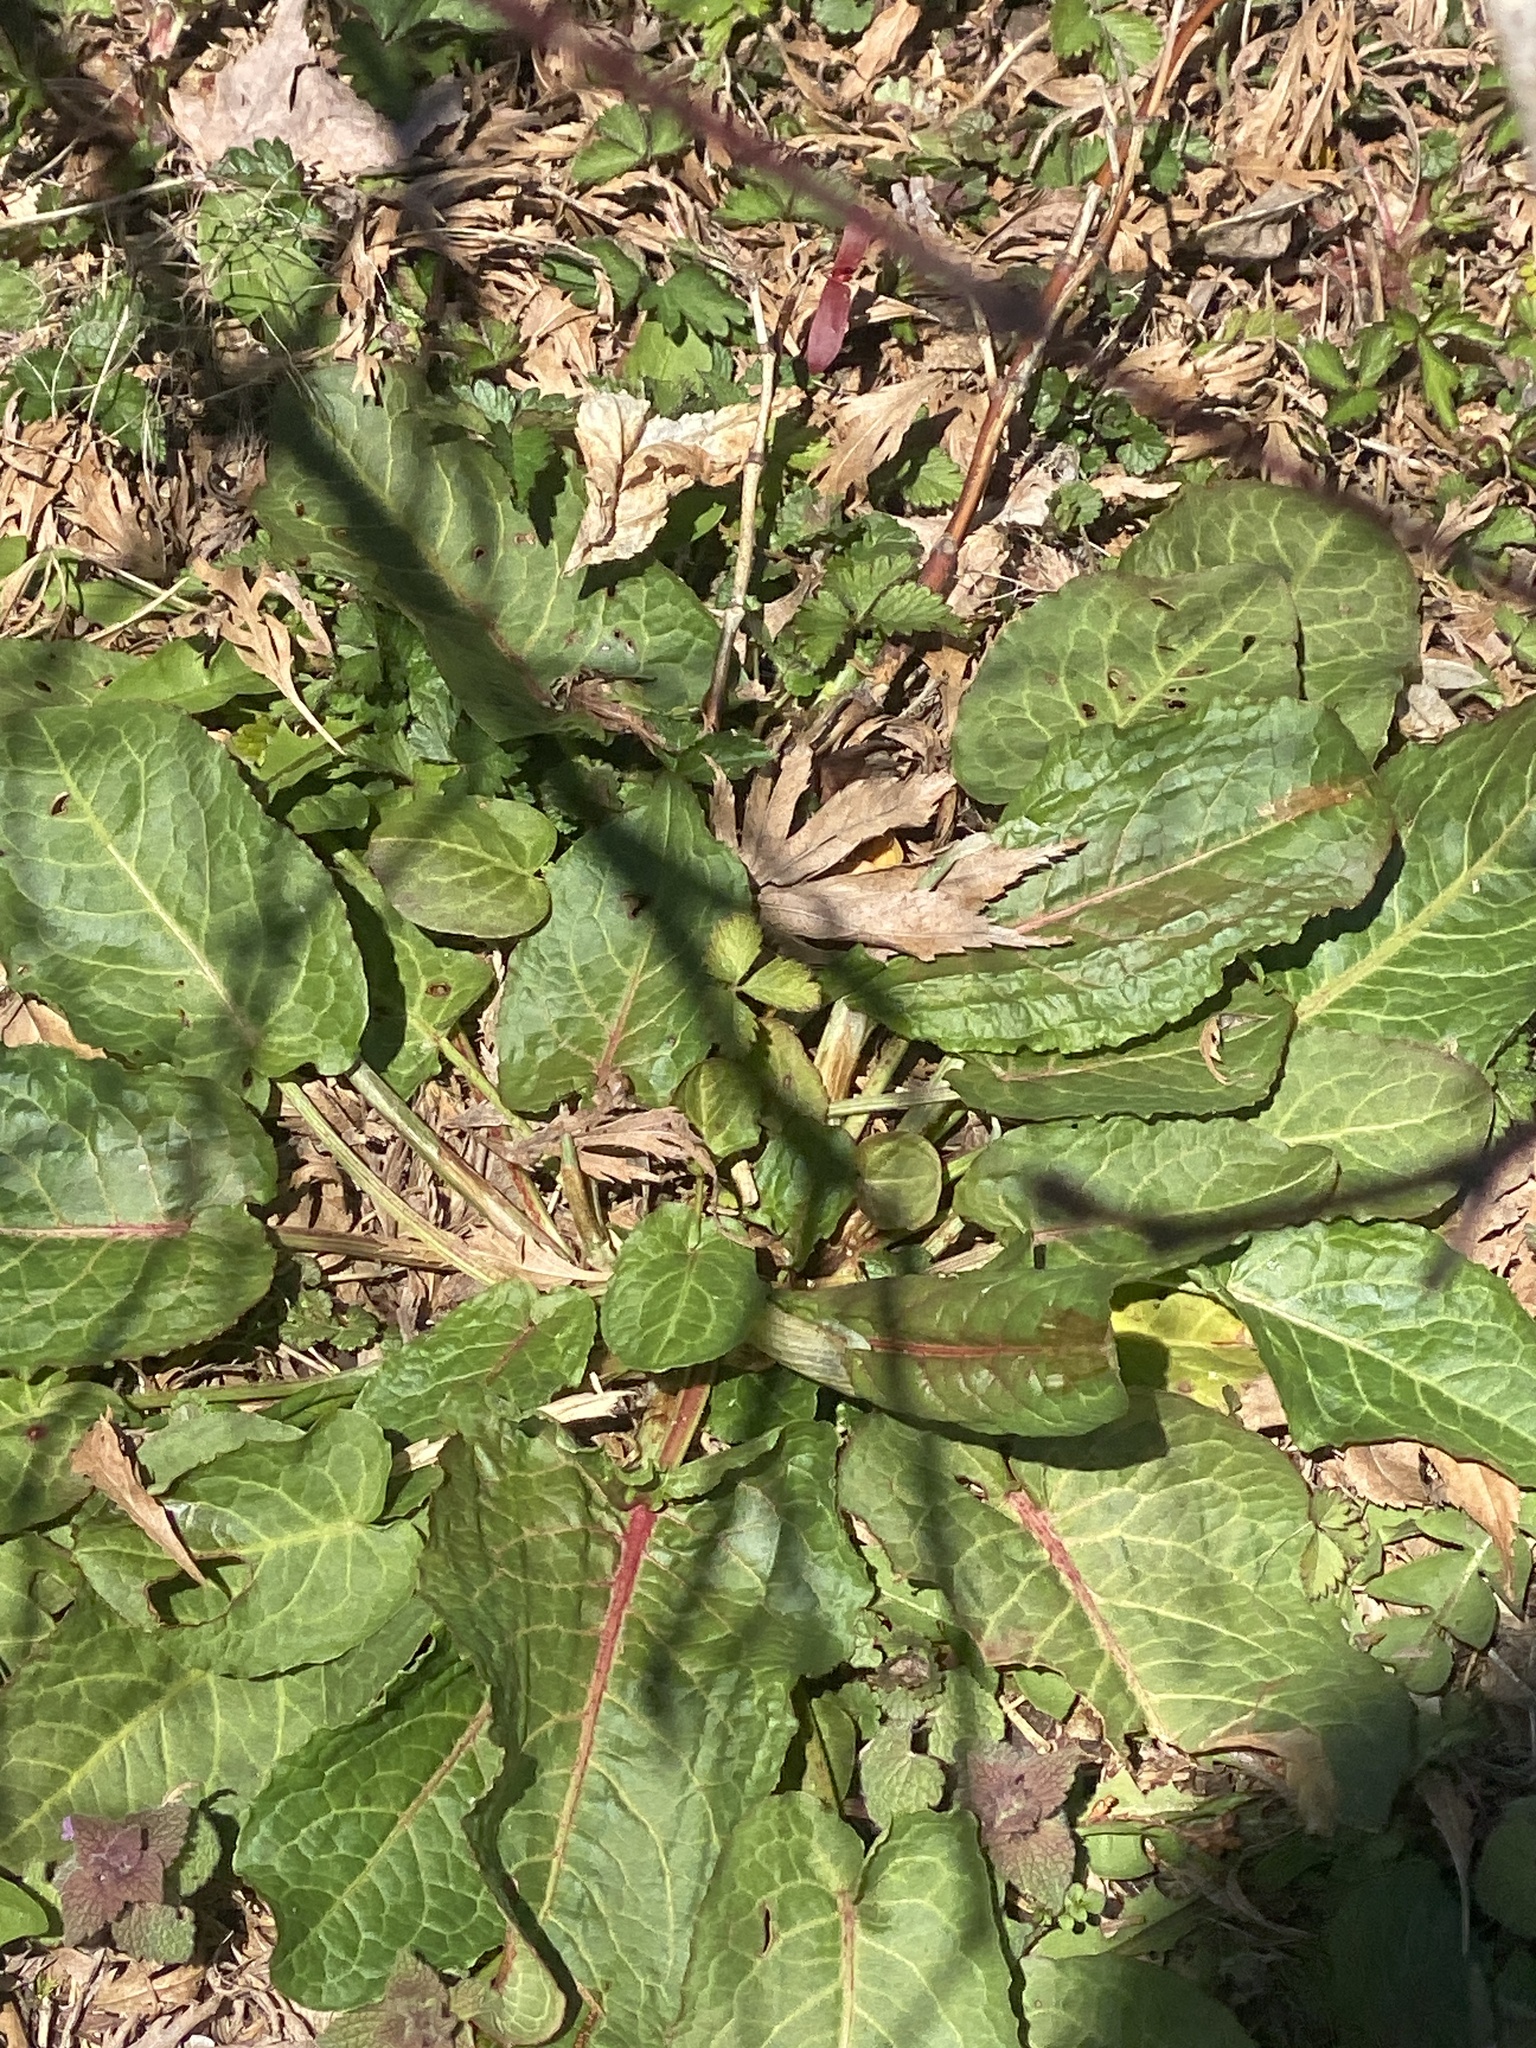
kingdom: Plantae
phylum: Tracheophyta
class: Magnoliopsida
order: Caryophyllales
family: Polygonaceae
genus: Rumex
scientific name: Rumex obtusifolius
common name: Bitter dock
